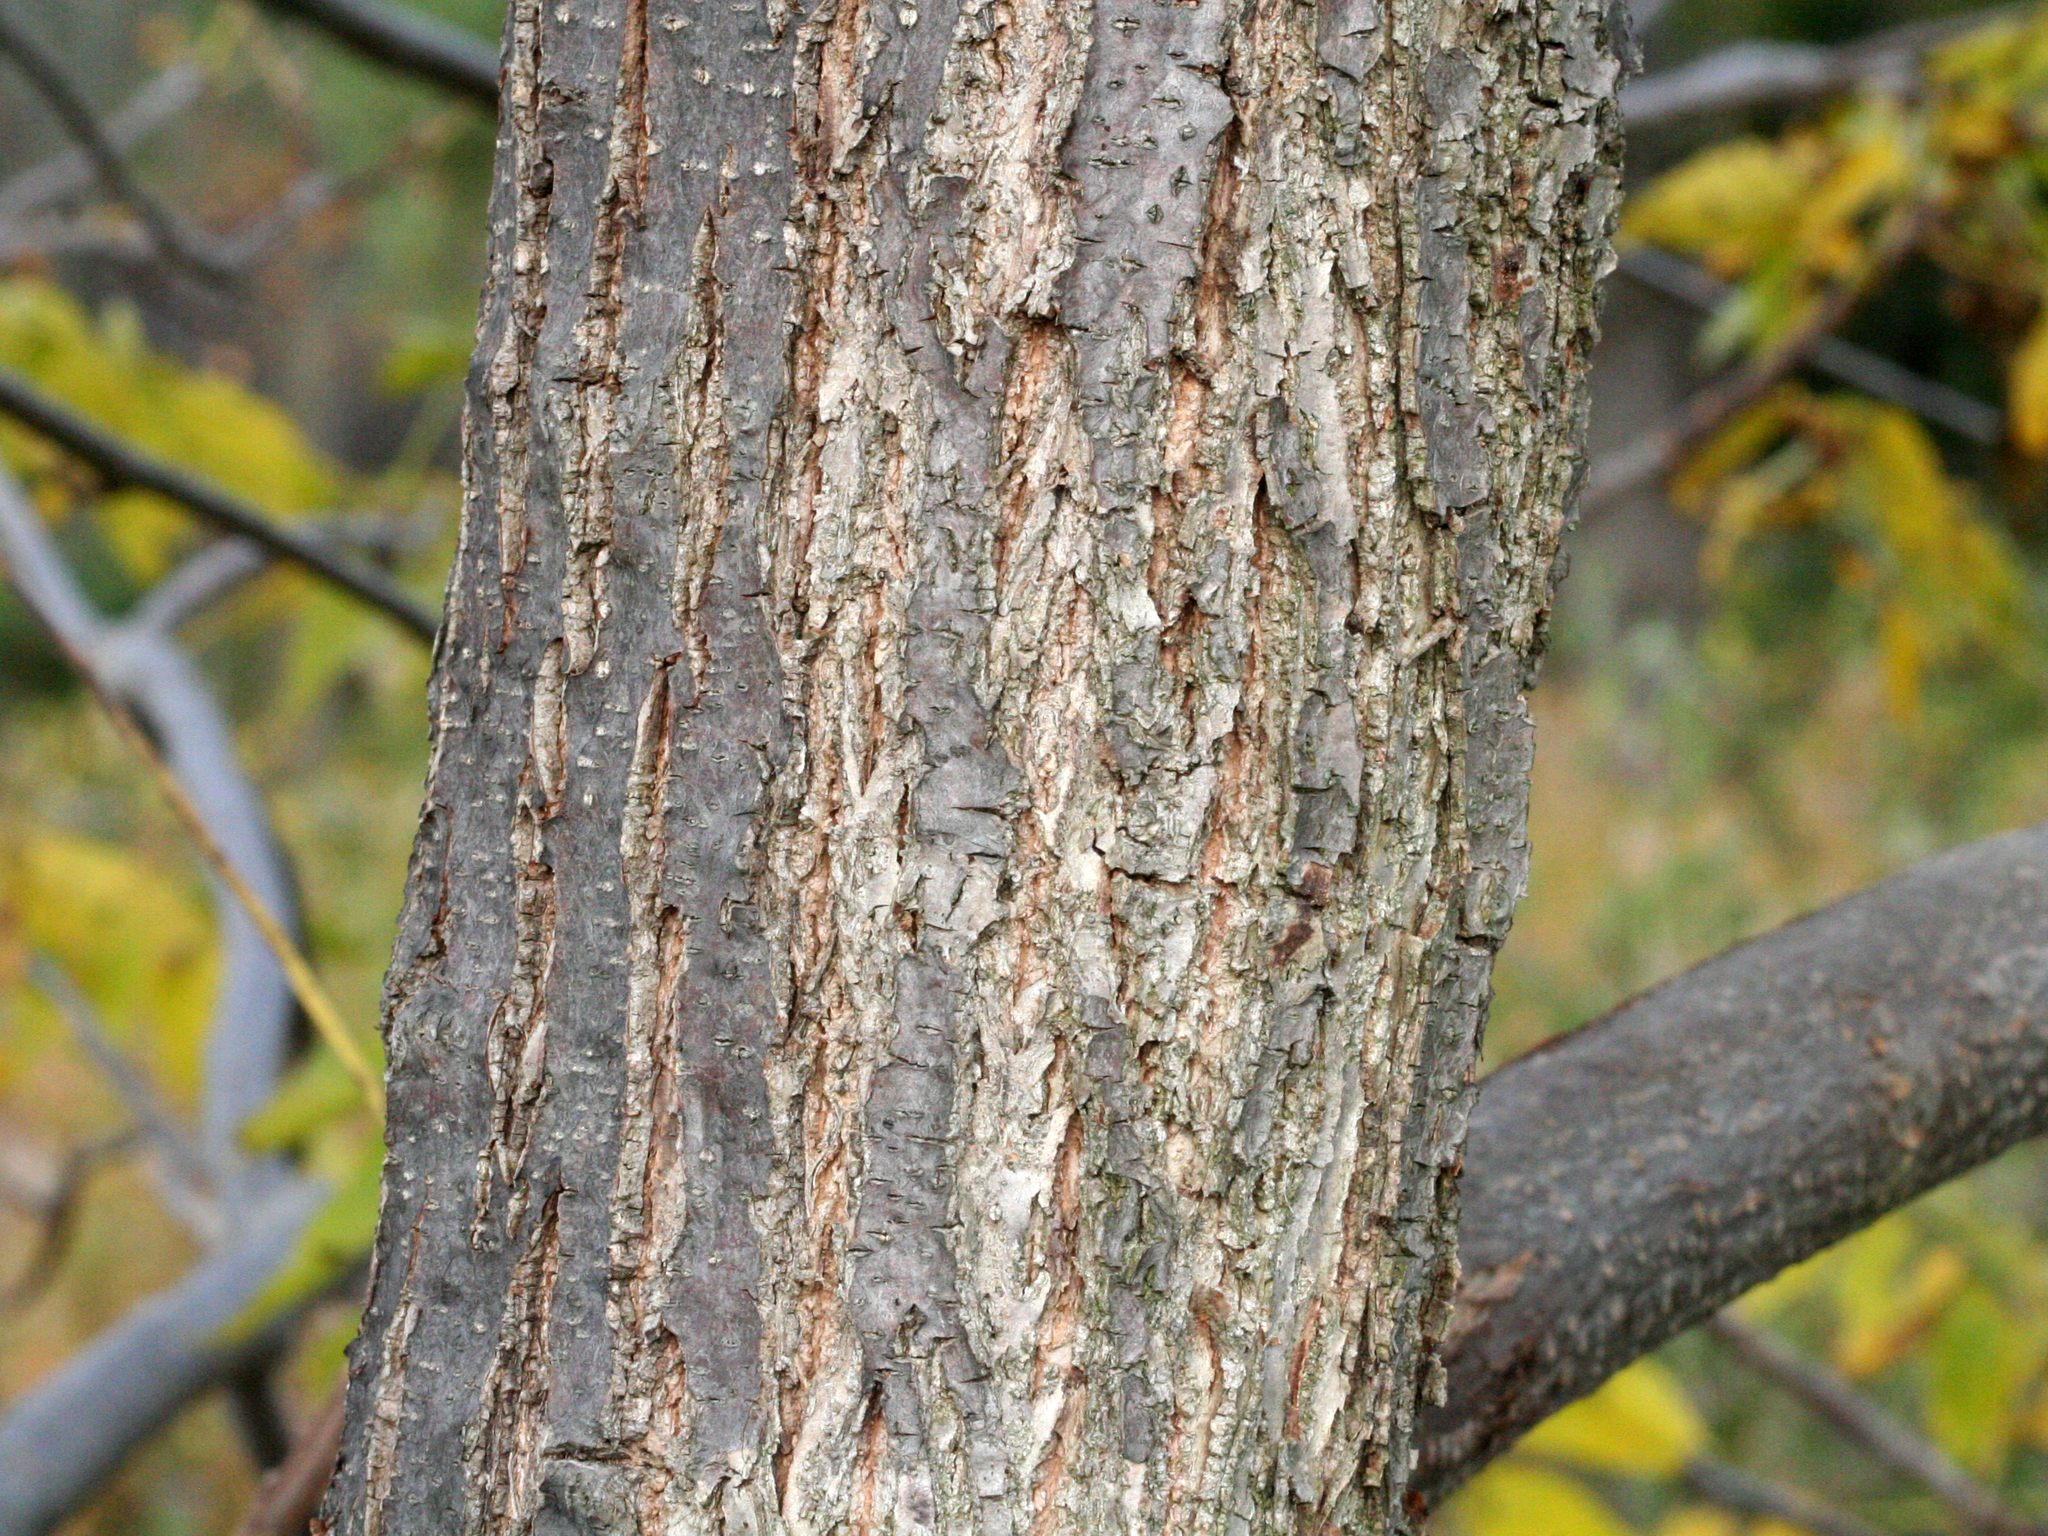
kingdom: Plantae
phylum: Tracheophyta
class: Magnoliopsida
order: Fagales
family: Juglandaceae
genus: Juglans
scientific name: Juglans nigra
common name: Black walnut
